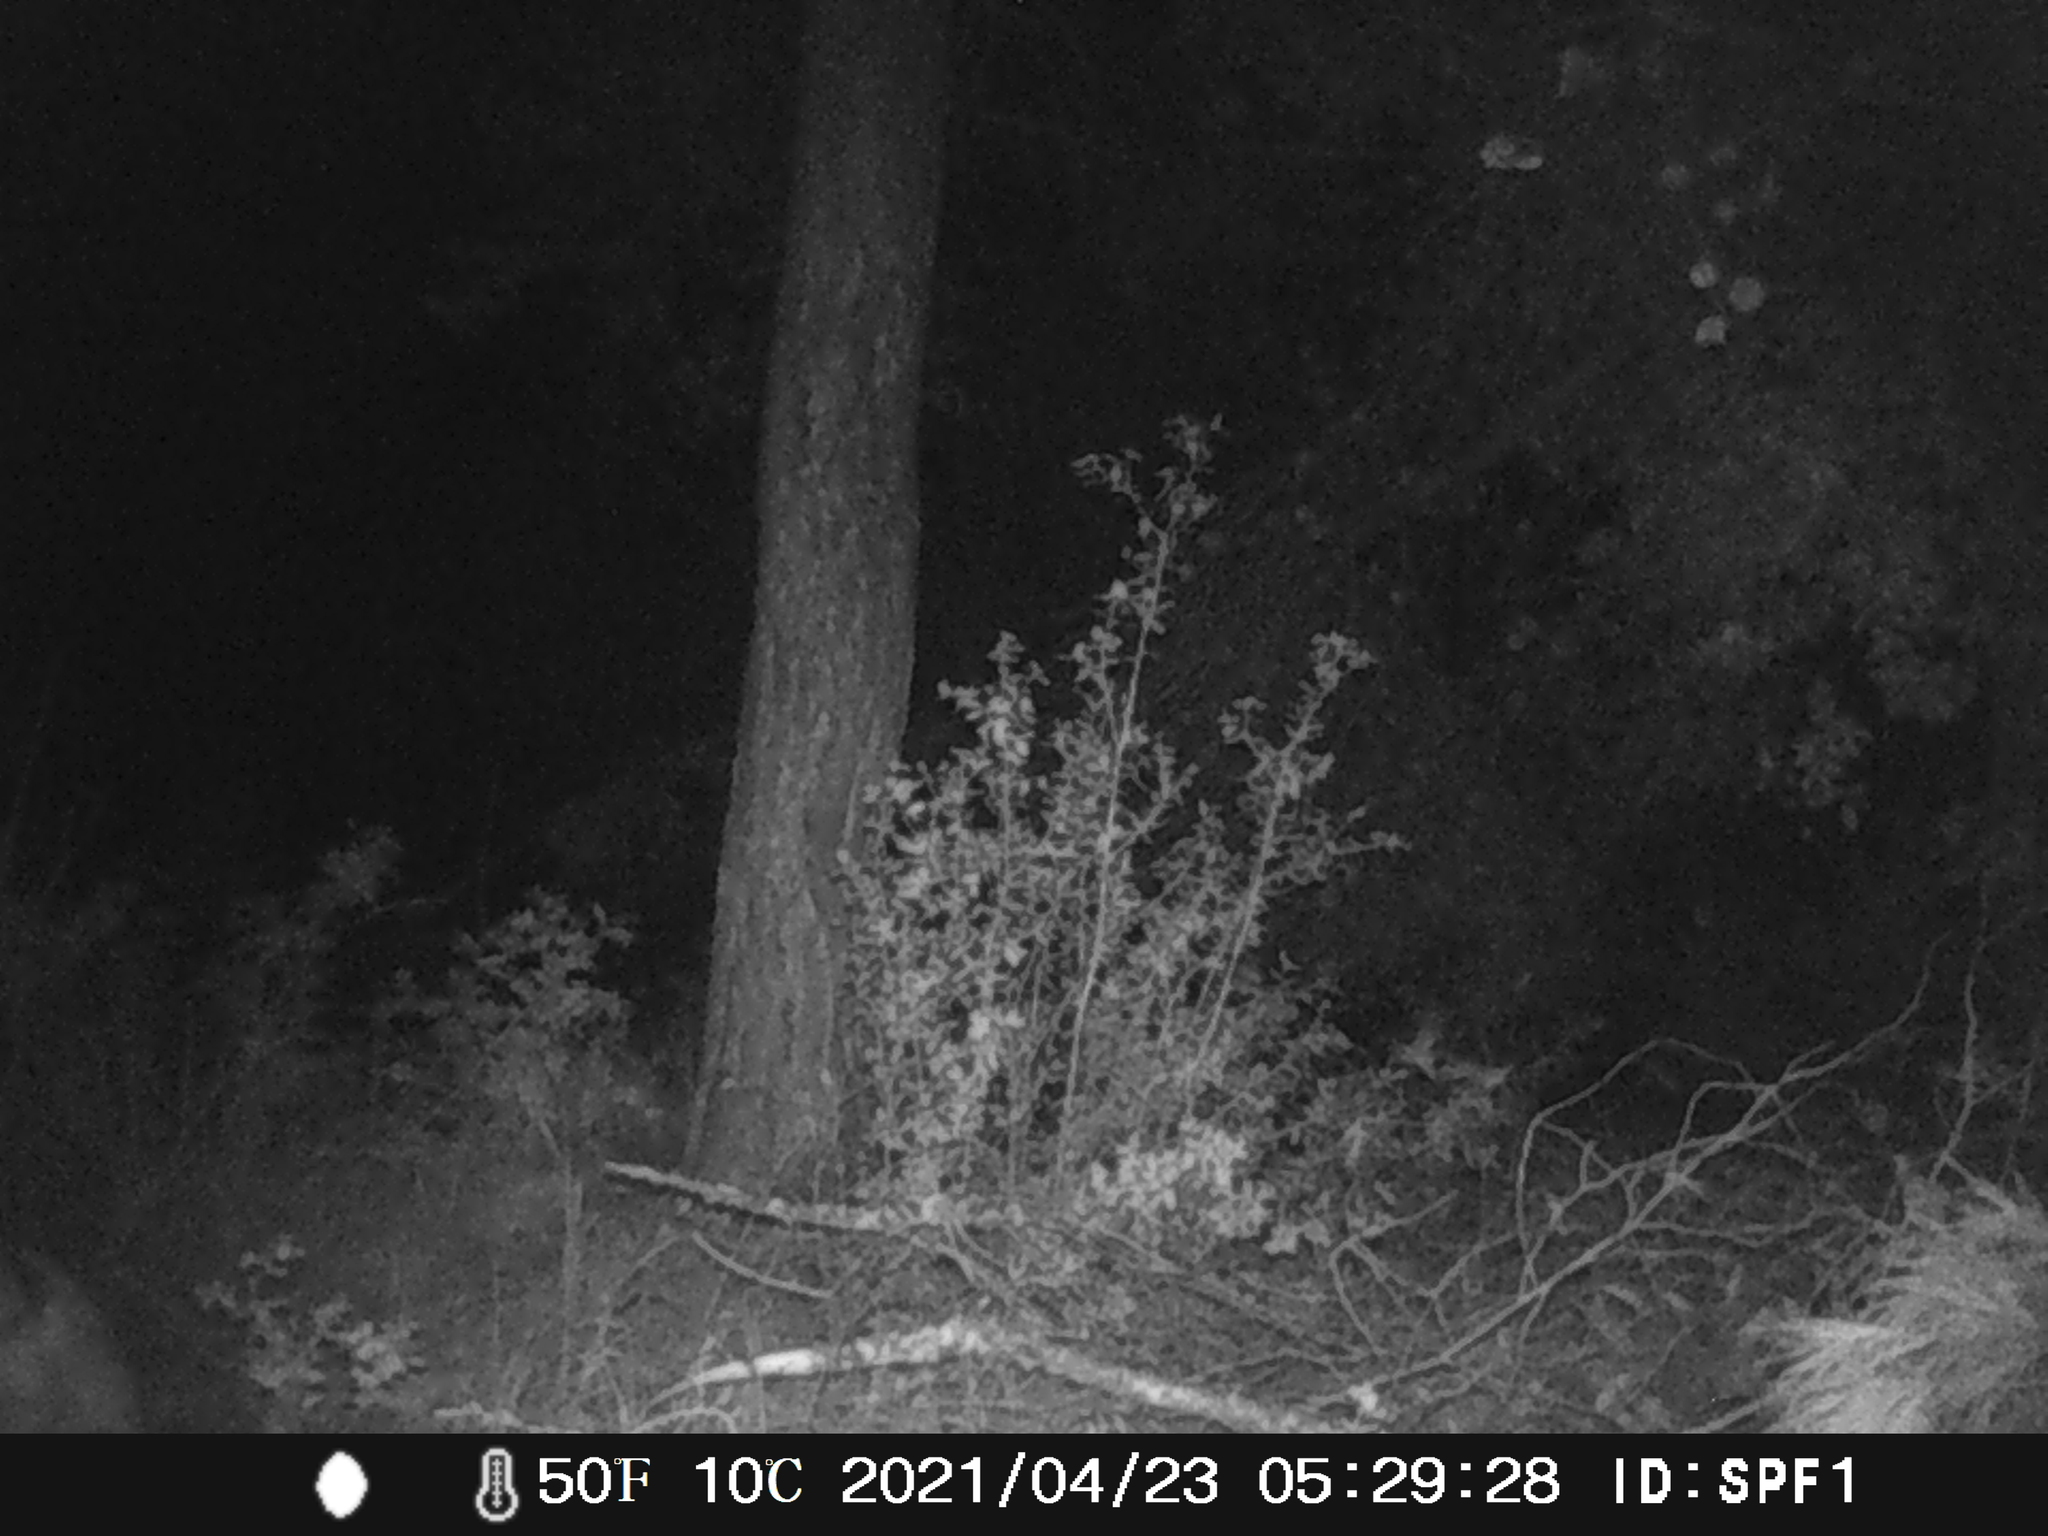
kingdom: Animalia
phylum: Chordata
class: Mammalia
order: Artiodactyla
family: Suidae
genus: Sus
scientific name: Sus scrofa
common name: Wild boar
